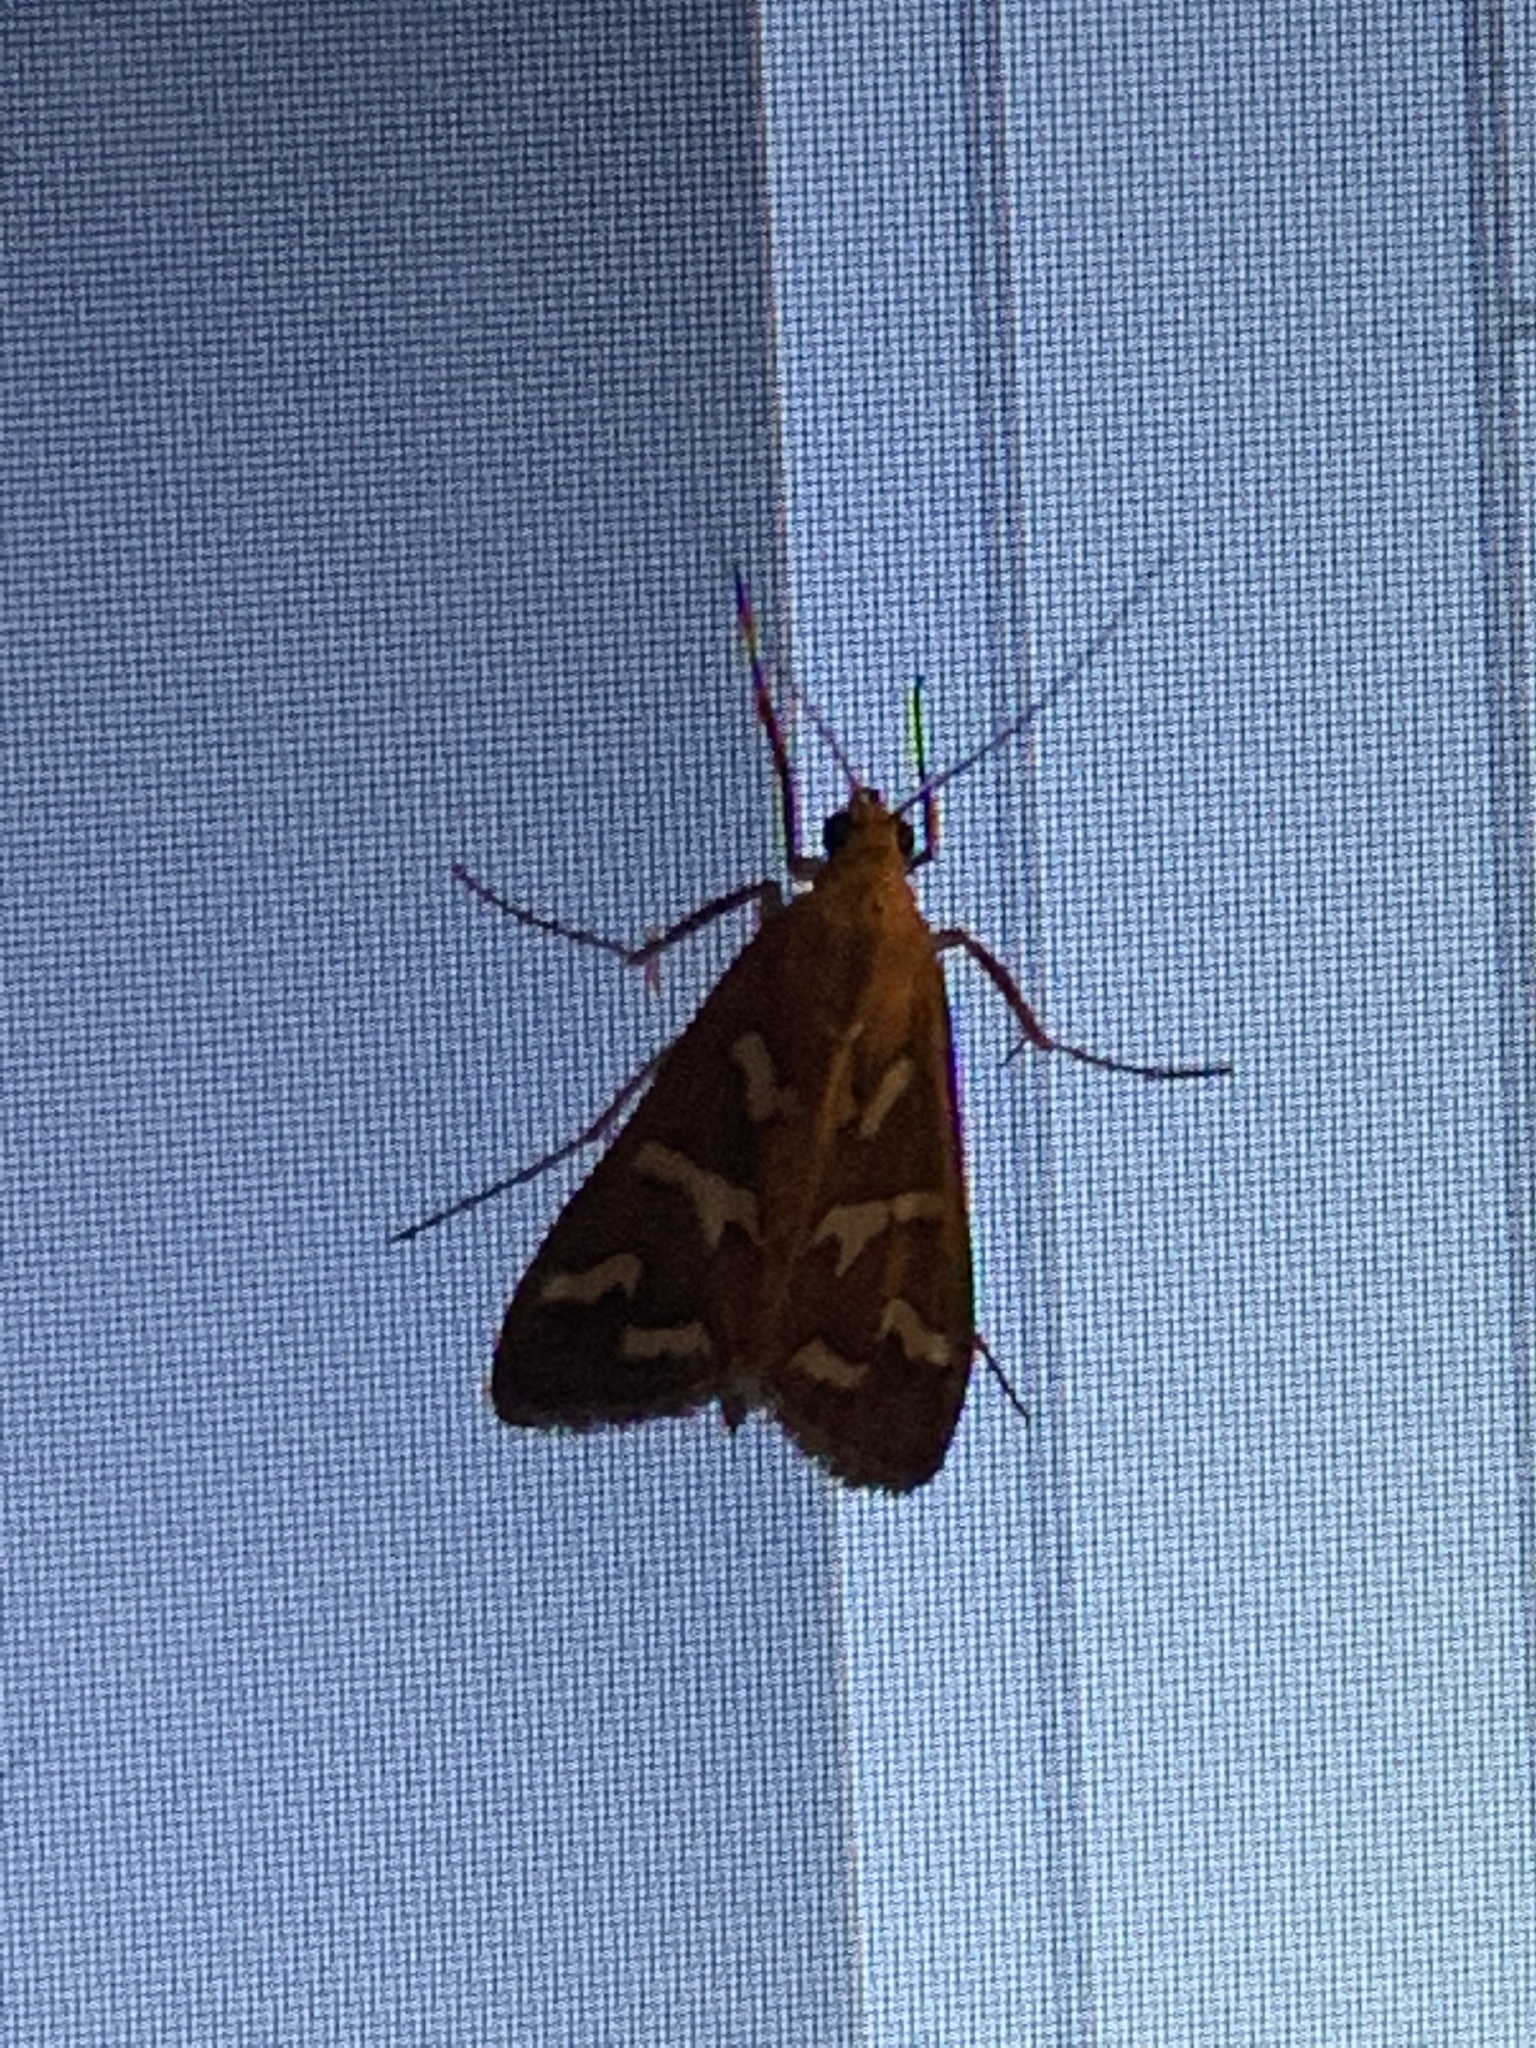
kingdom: Animalia
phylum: Arthropoda
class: Insecta
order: Lepidoptera
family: Crambidae
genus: Diastictis
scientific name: Diastictis fracturalis
